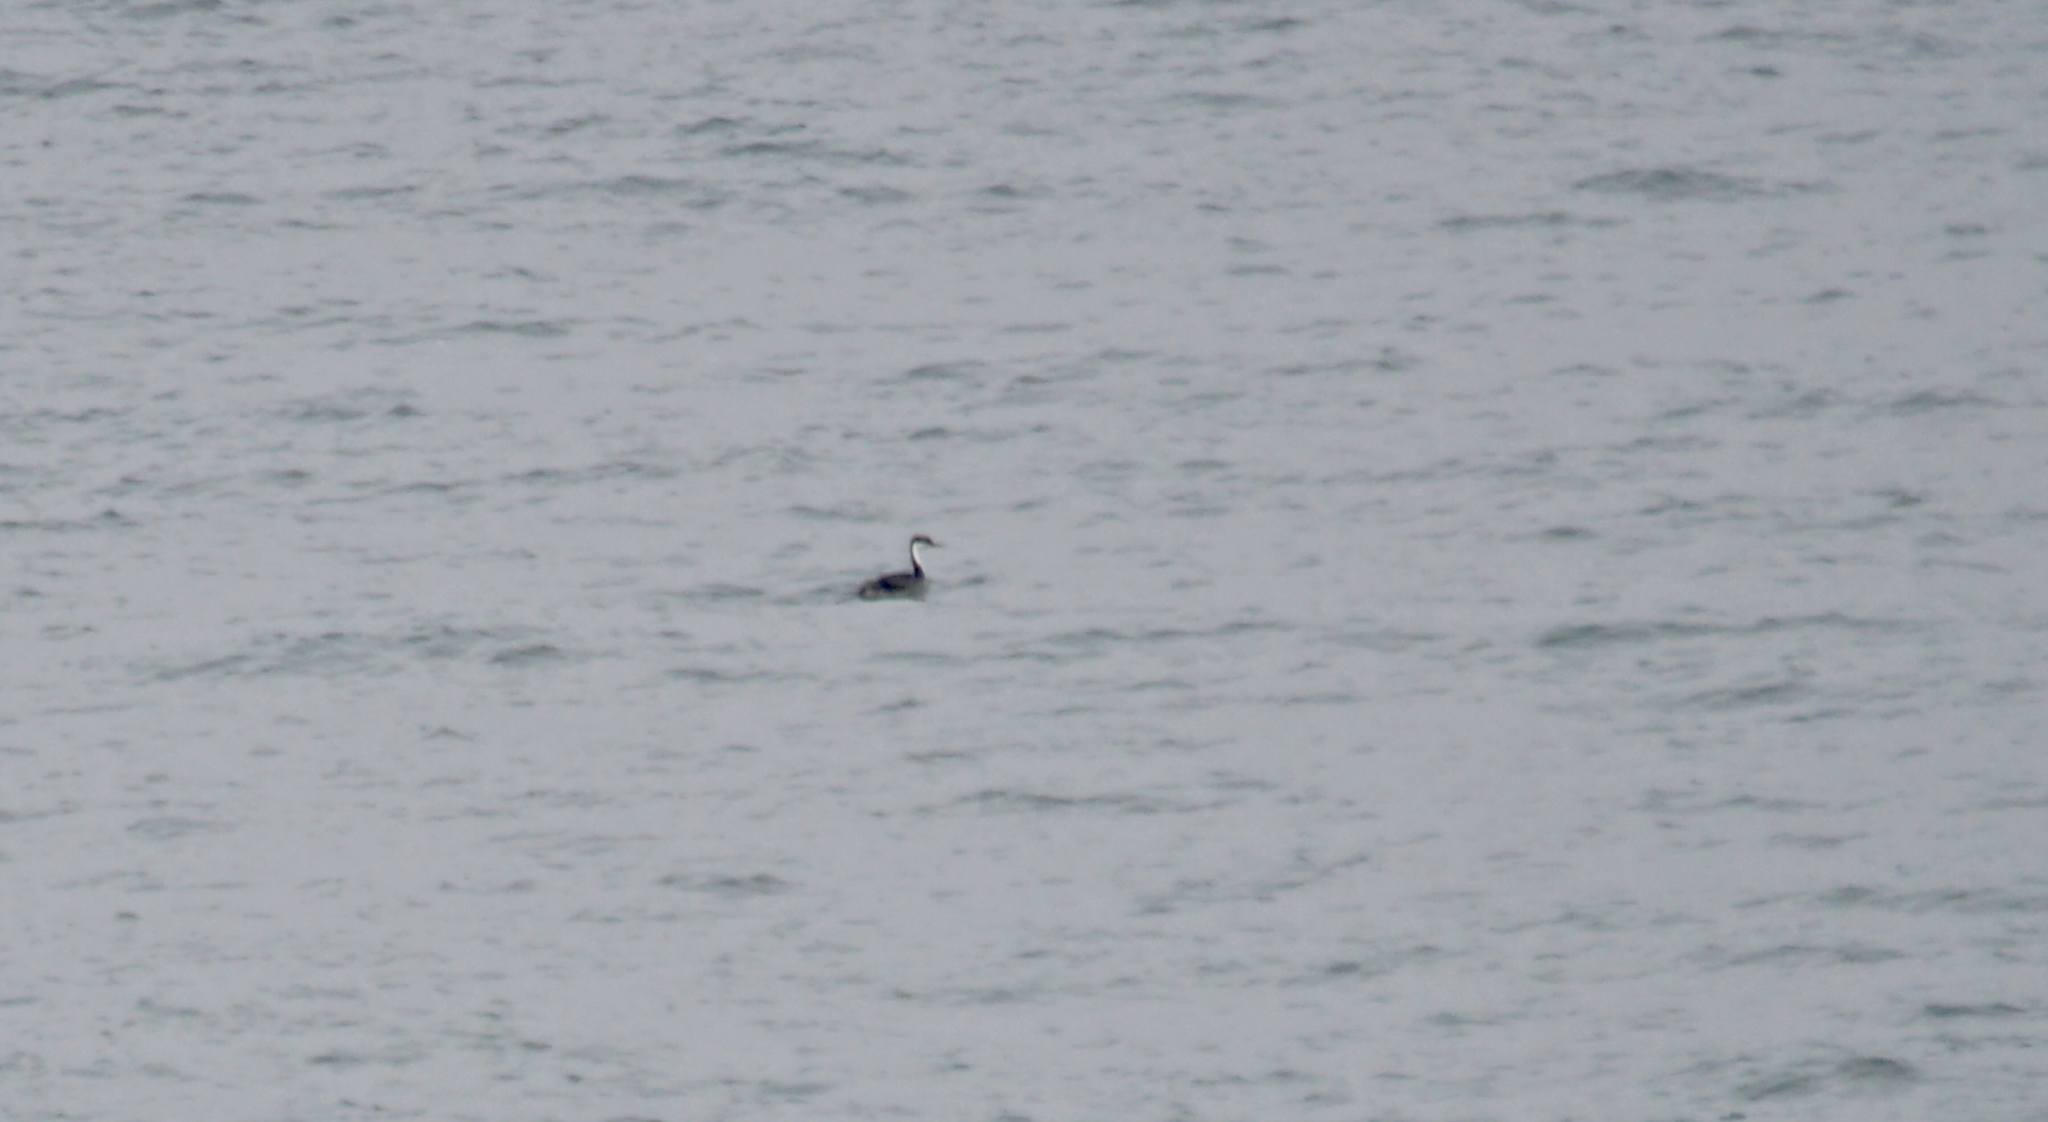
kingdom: Animalia
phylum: Chordata
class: Aves
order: Podicipediformes
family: Podicipedidae
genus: Aechmophorus
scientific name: Aechmophorus occidentalis
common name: Western grebe
